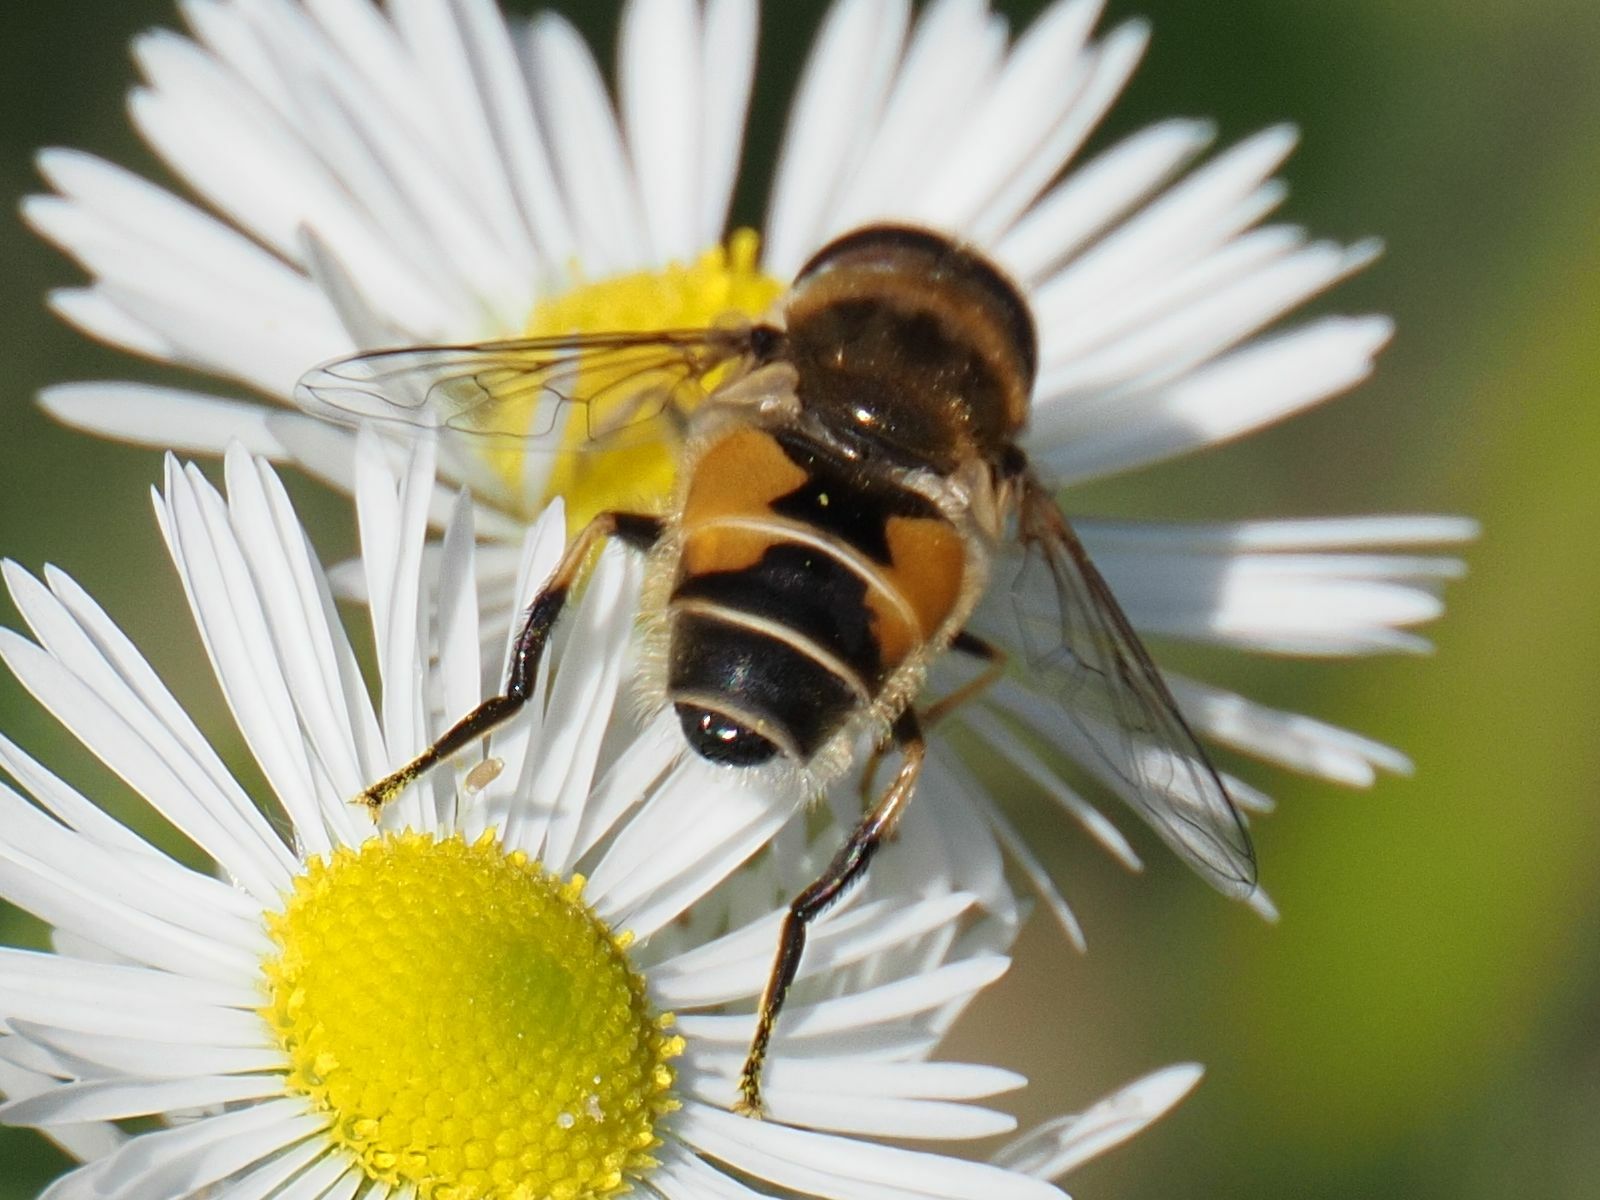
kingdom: Animalia
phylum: Arthropoda
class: Insecta
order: Diptera
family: Syrphidae
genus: Eristalis
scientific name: Eristalis arbustorum
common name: Hover fly
